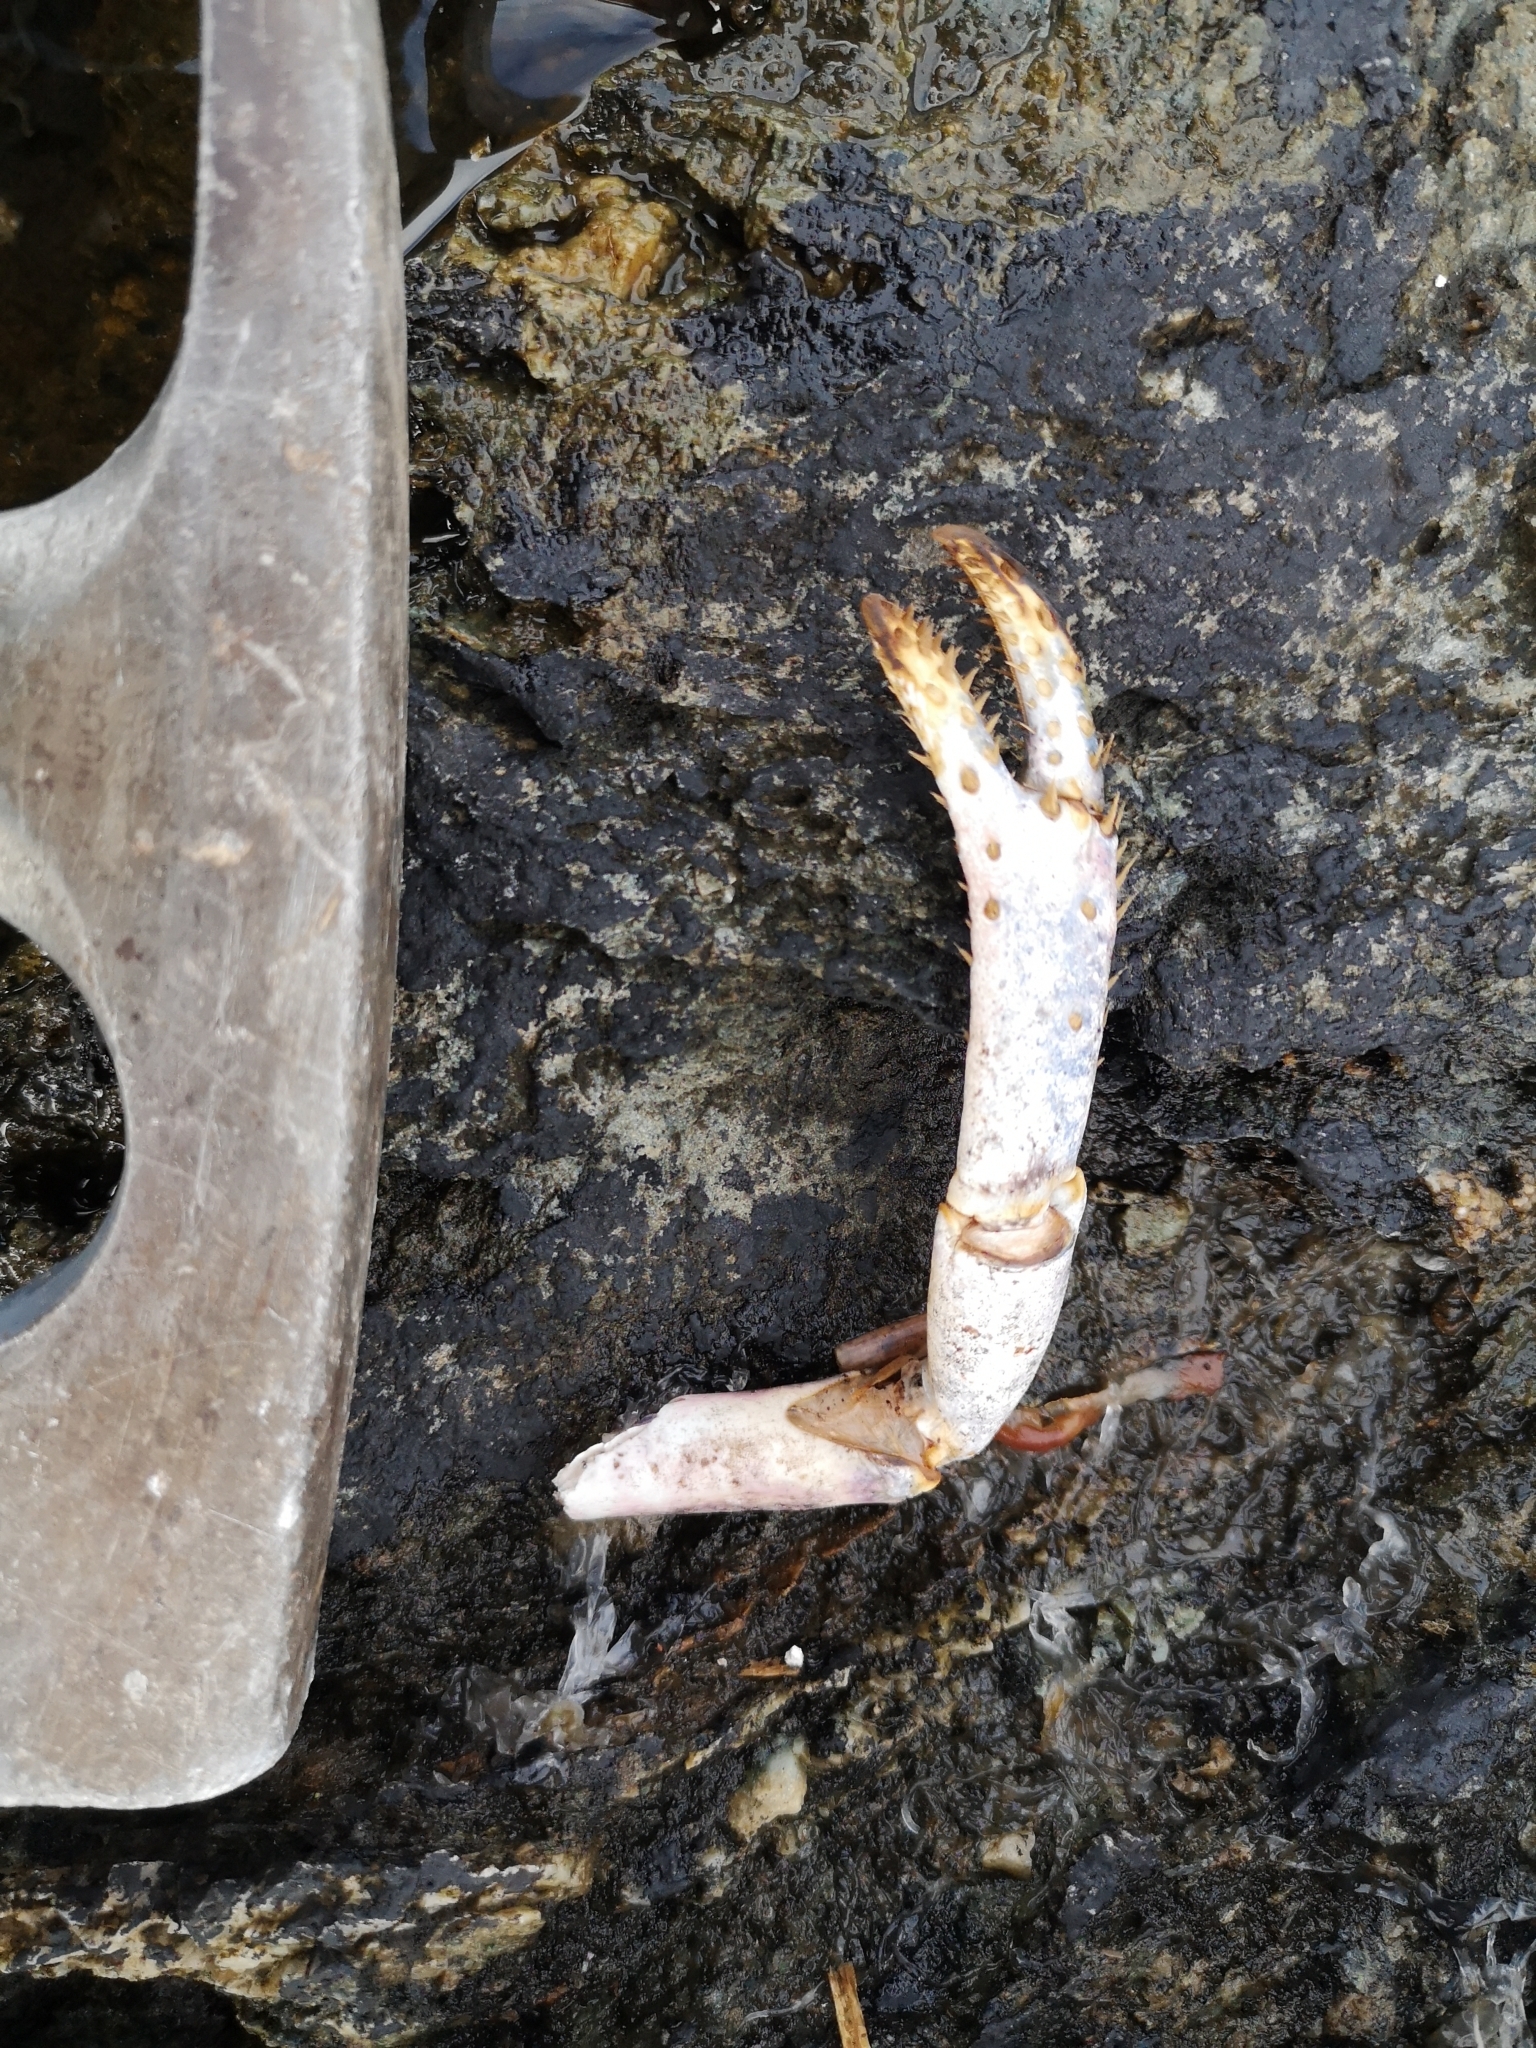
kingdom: Animalia
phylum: Arthropoda
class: Malacostraca
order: Decapoda
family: Nephropidae
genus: Homarus
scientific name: Homarus gammarus
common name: European lobster
